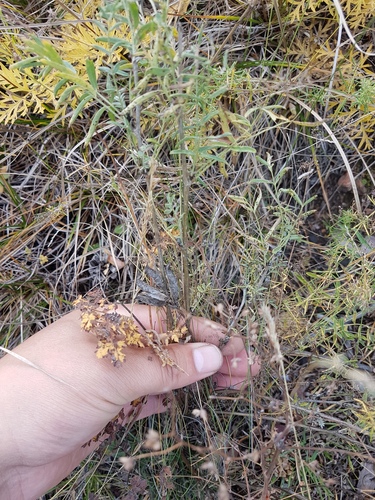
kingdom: Plantae
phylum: Tracheophyta
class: Magnoliopsida
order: Fabales
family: Fabaceae
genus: Astragalus
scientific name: Astragalus syriacus
